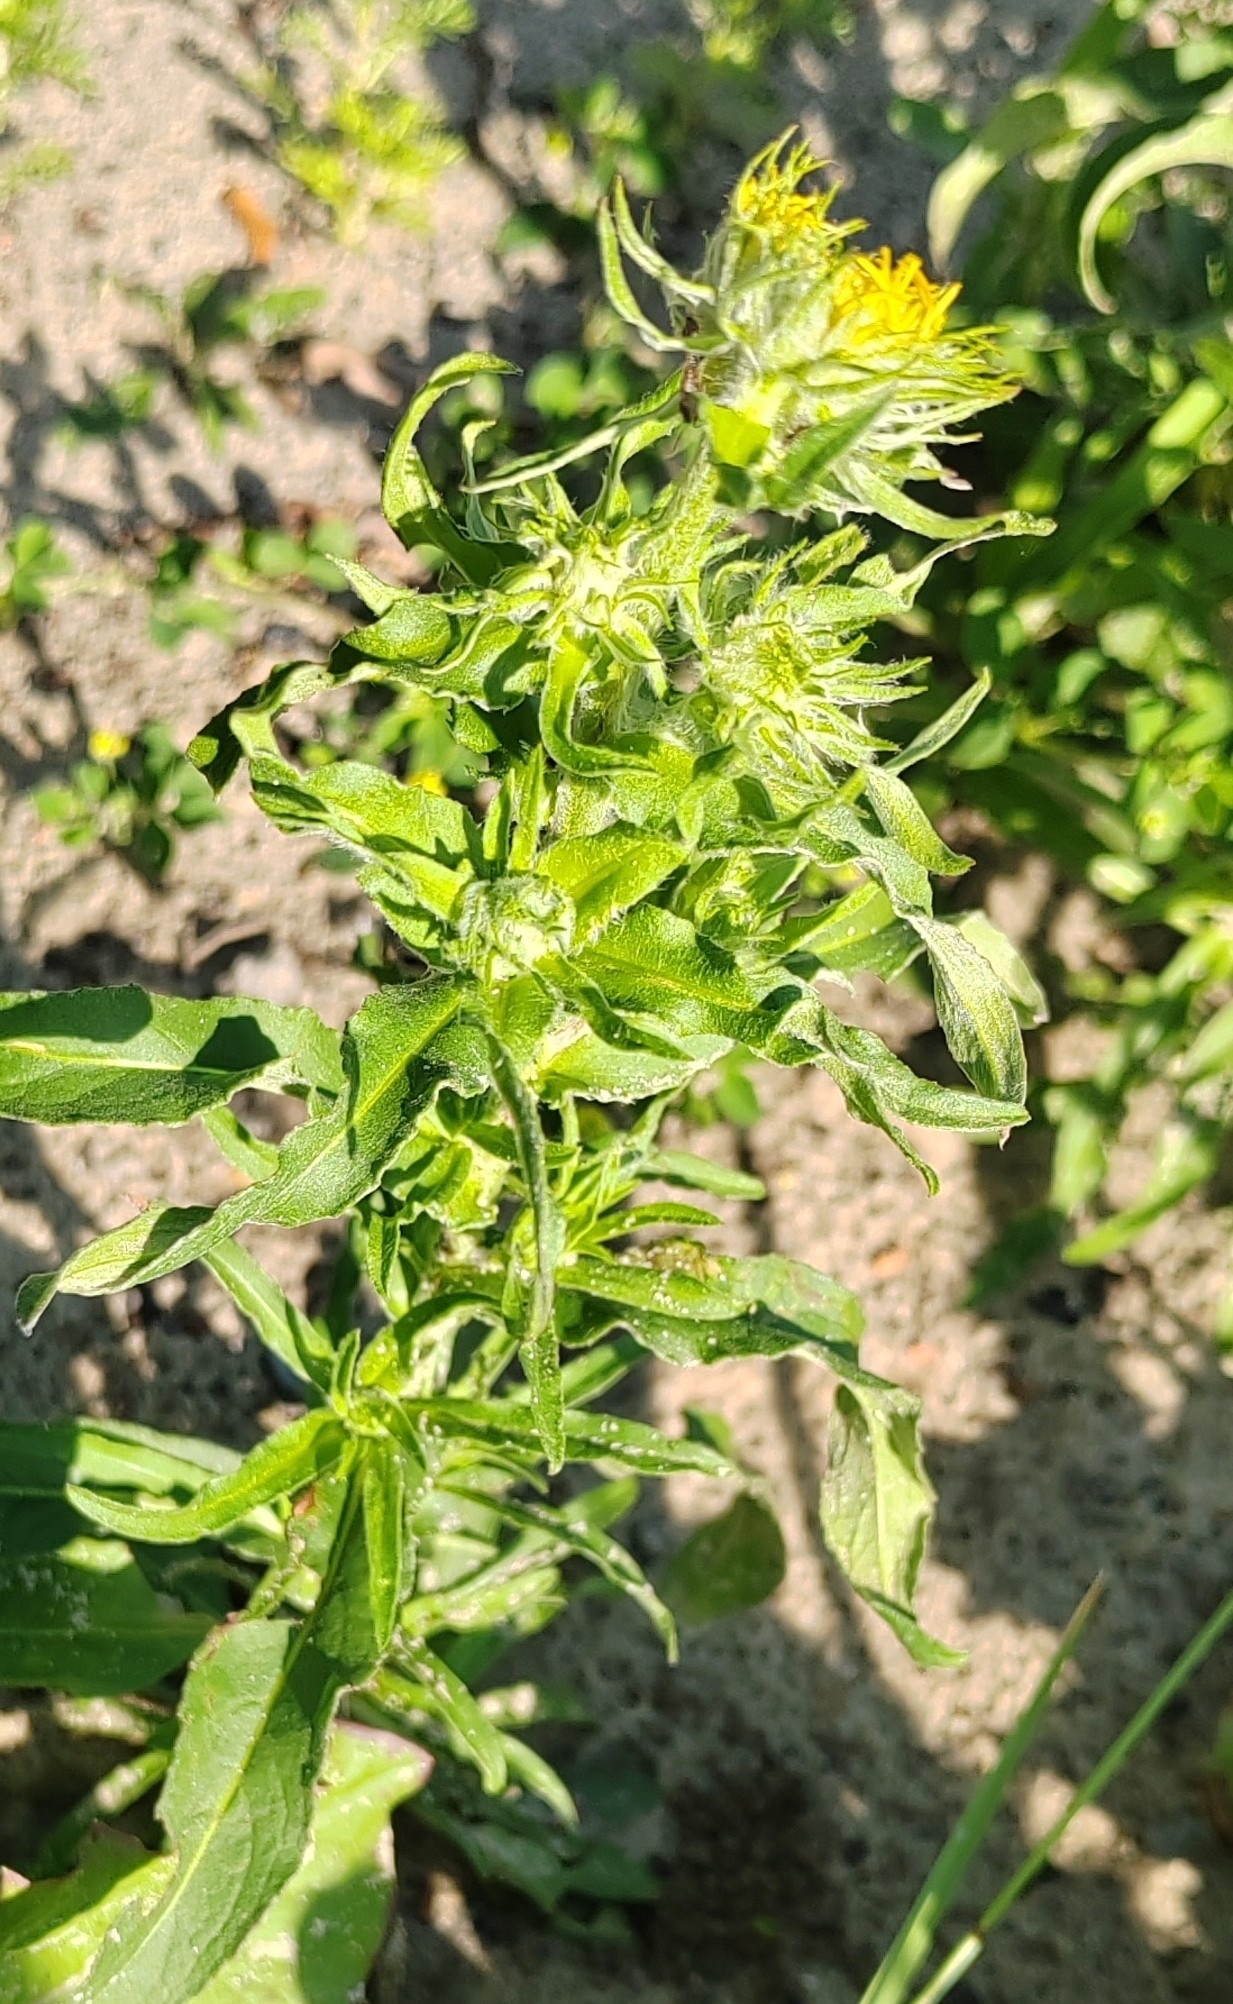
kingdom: Plantae
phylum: Tracheophyta
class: Magnoliopsida
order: Asterales
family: Asteraceae
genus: Pentanema
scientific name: Pentanema britannicum
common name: British elecampane
